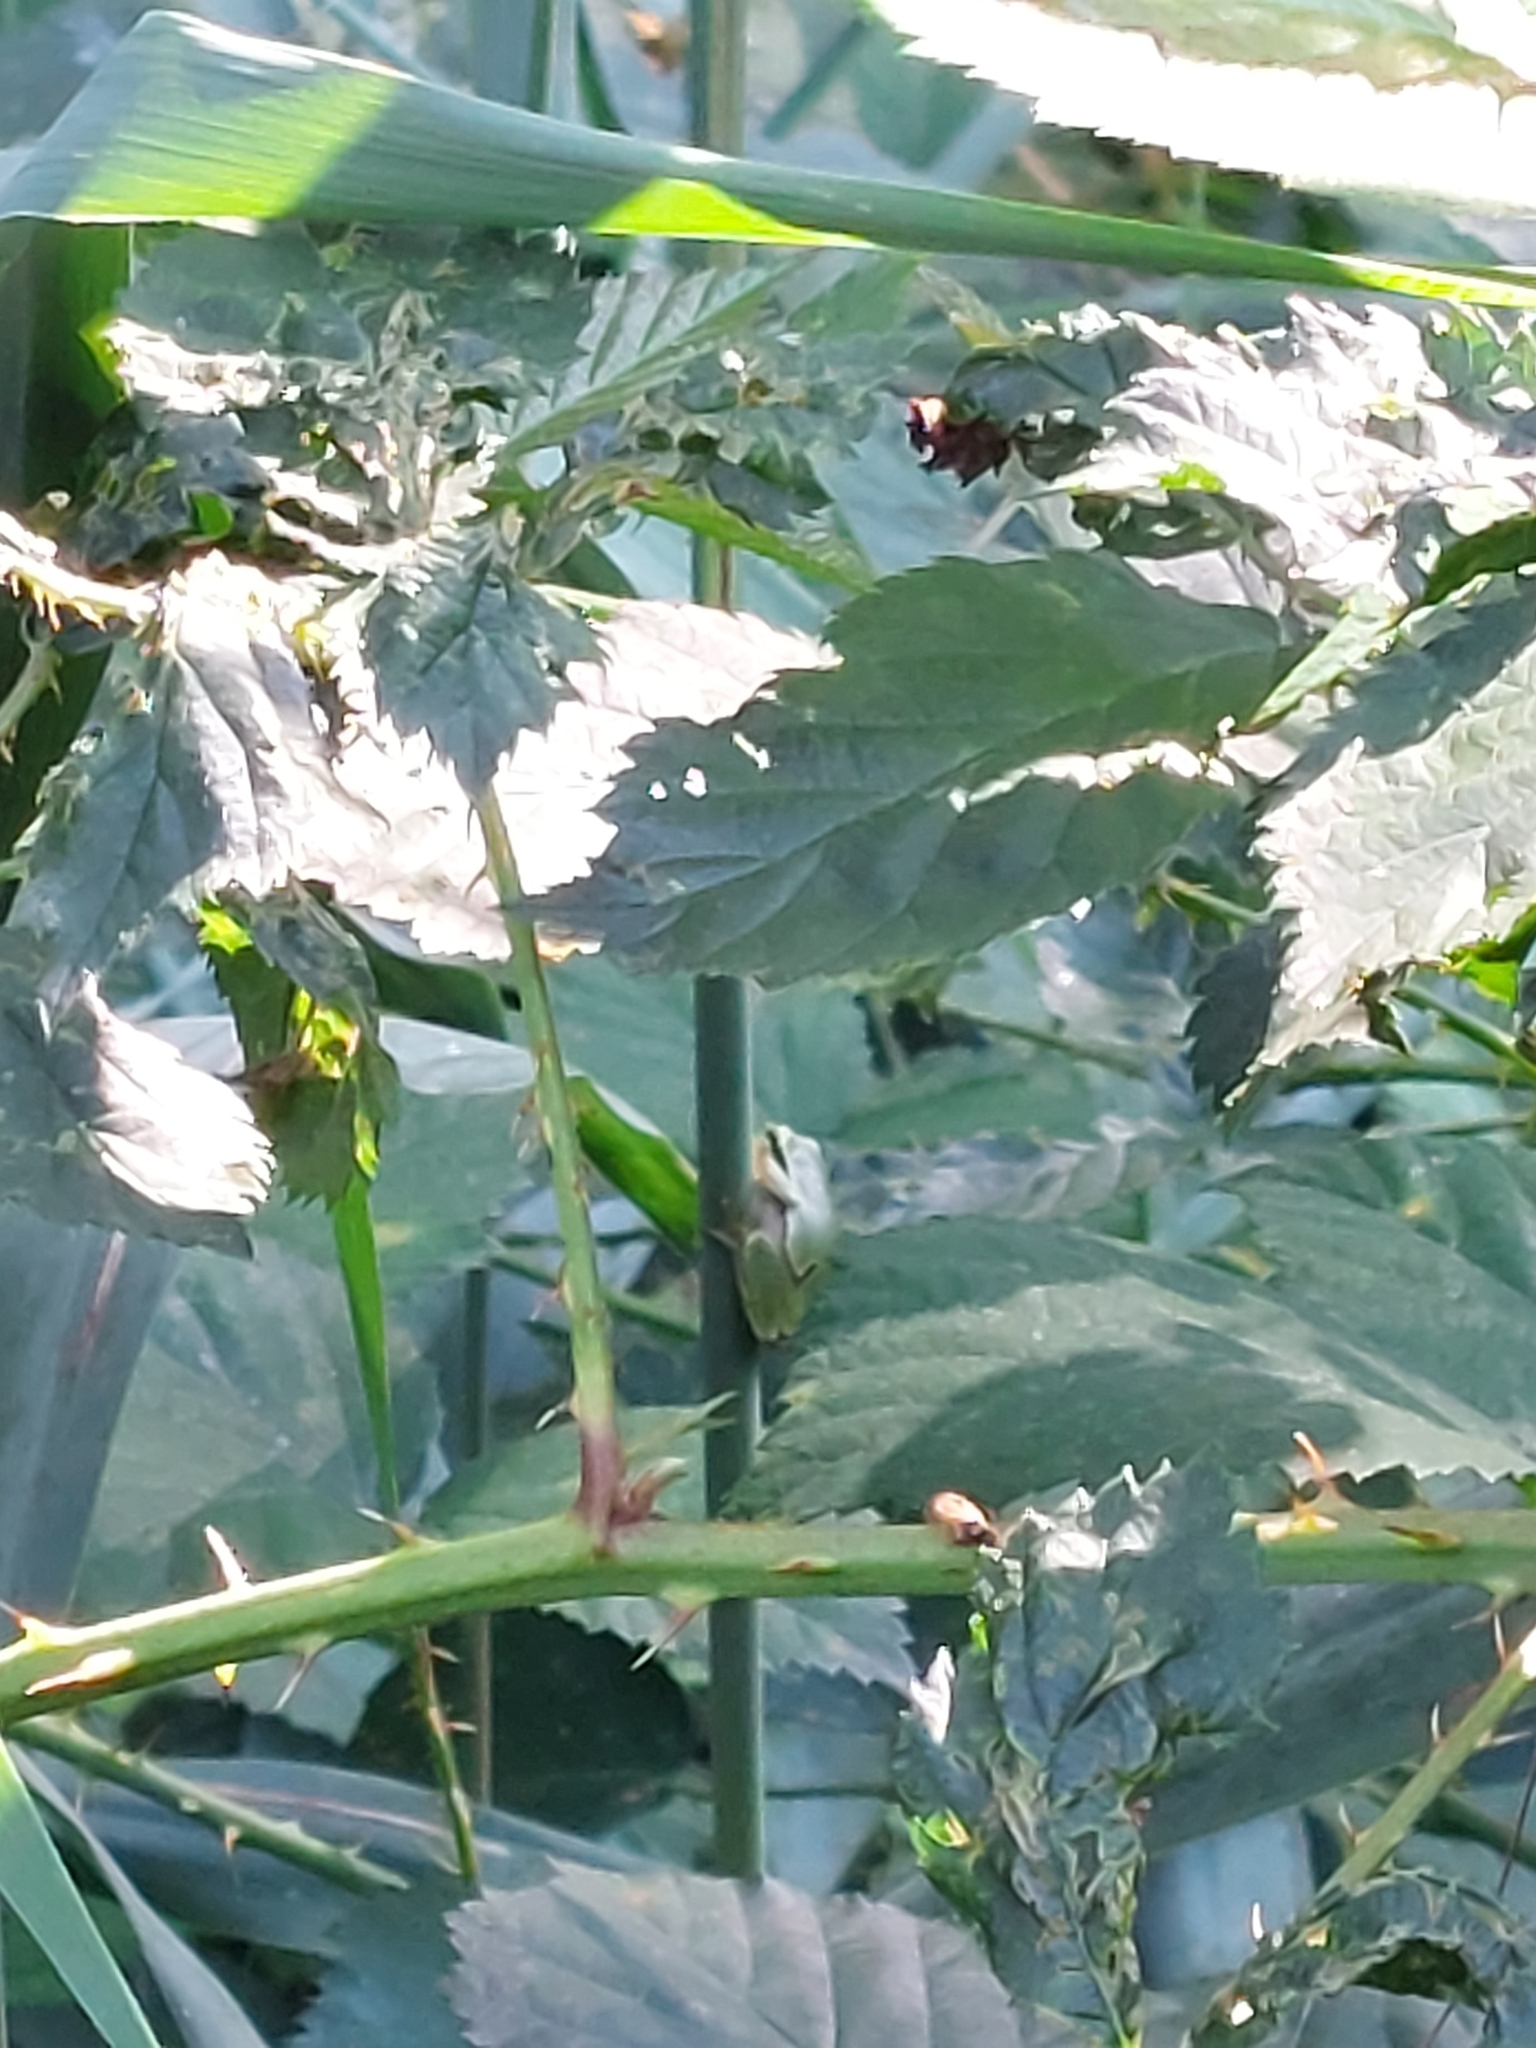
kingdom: Animalia
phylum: Chordata
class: Amphibia
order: Anura
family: Hylidae
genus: Hyla
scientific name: Hyla arborea
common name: Common tree frog
